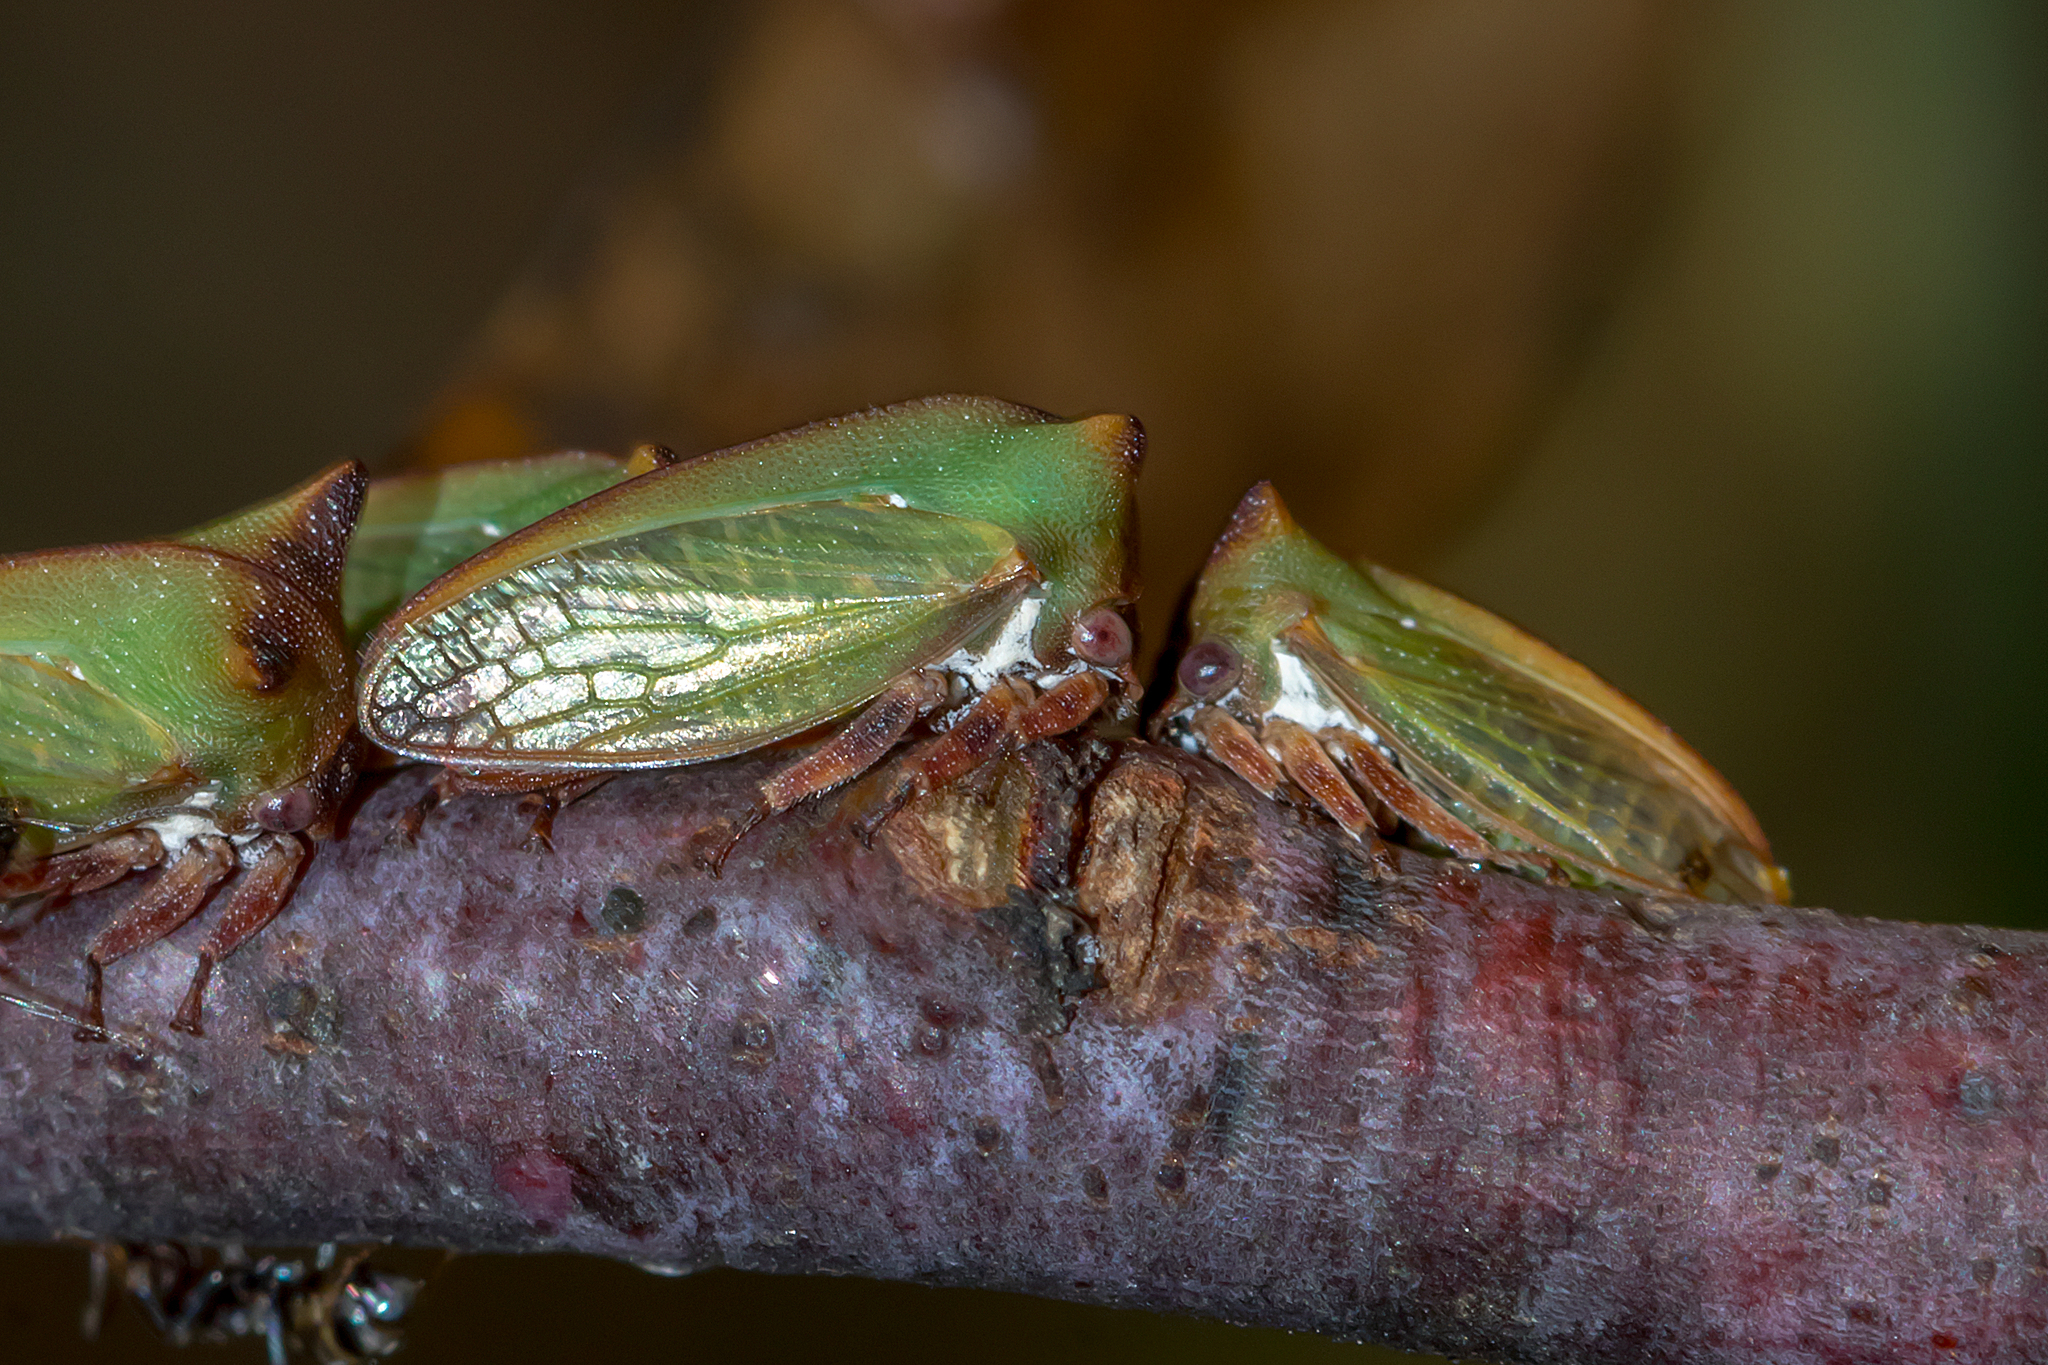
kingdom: Animalia
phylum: Arthropoda
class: Insecta
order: Hemiptera
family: Membracidae
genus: Sextius
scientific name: Sextius virescens
